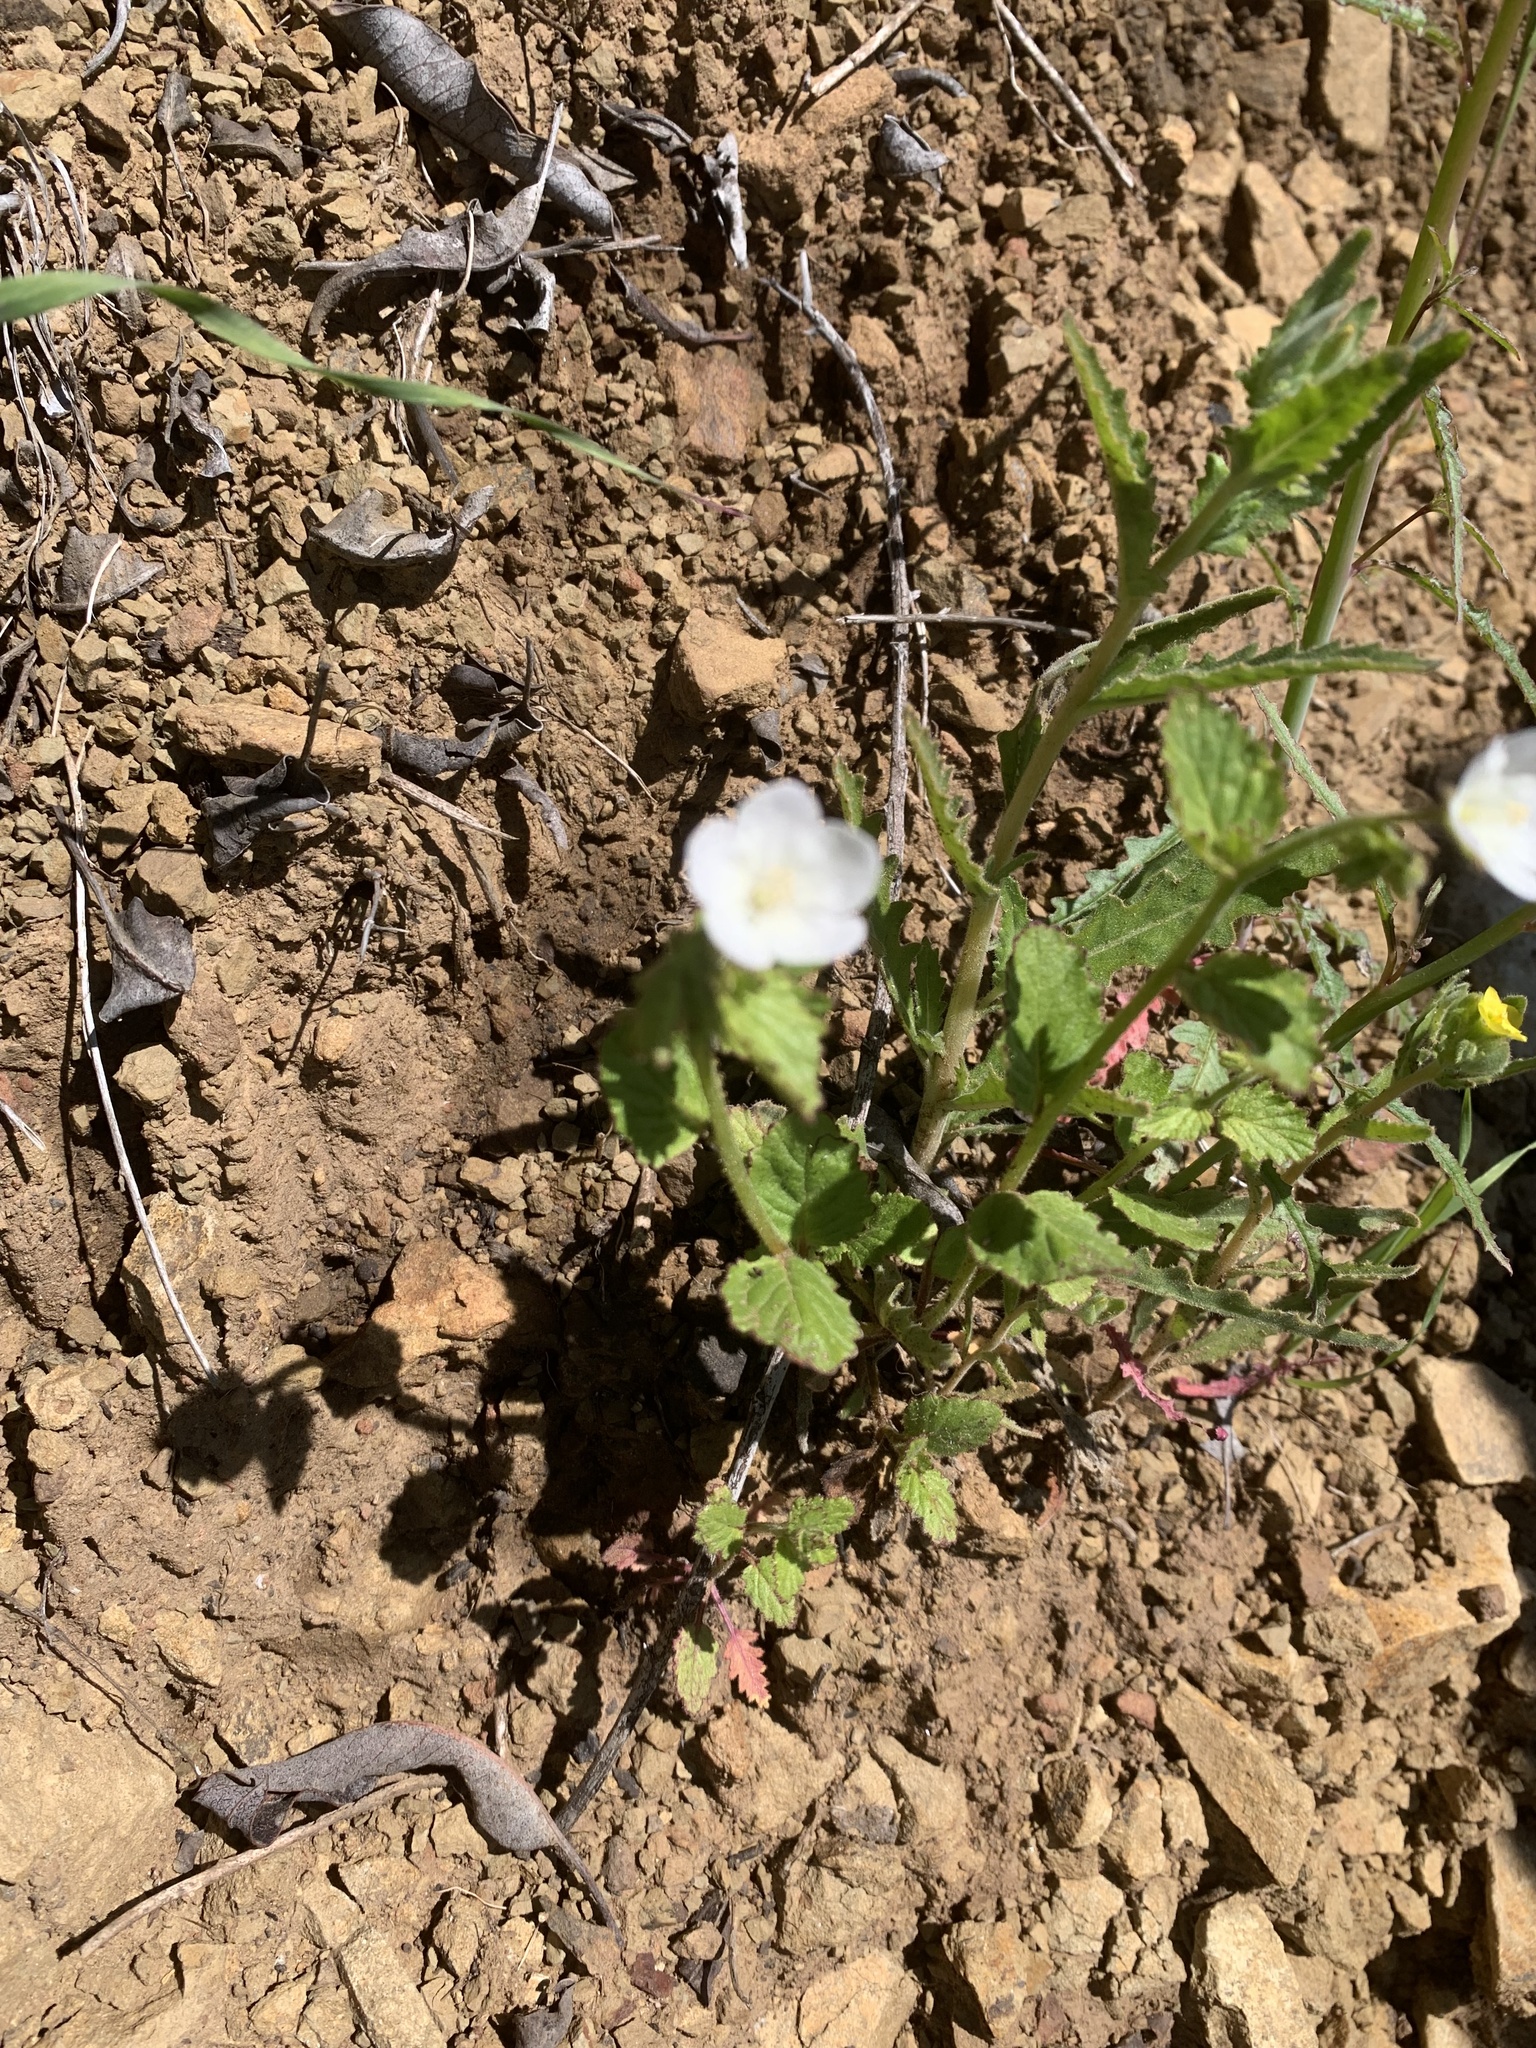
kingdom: Plantae
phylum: Tracheophyta
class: Magnoliopsida
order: Boraginales
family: Hydrophyllaceae
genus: Phacelia
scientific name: Phacelia viscida
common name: Sticky phacelia
